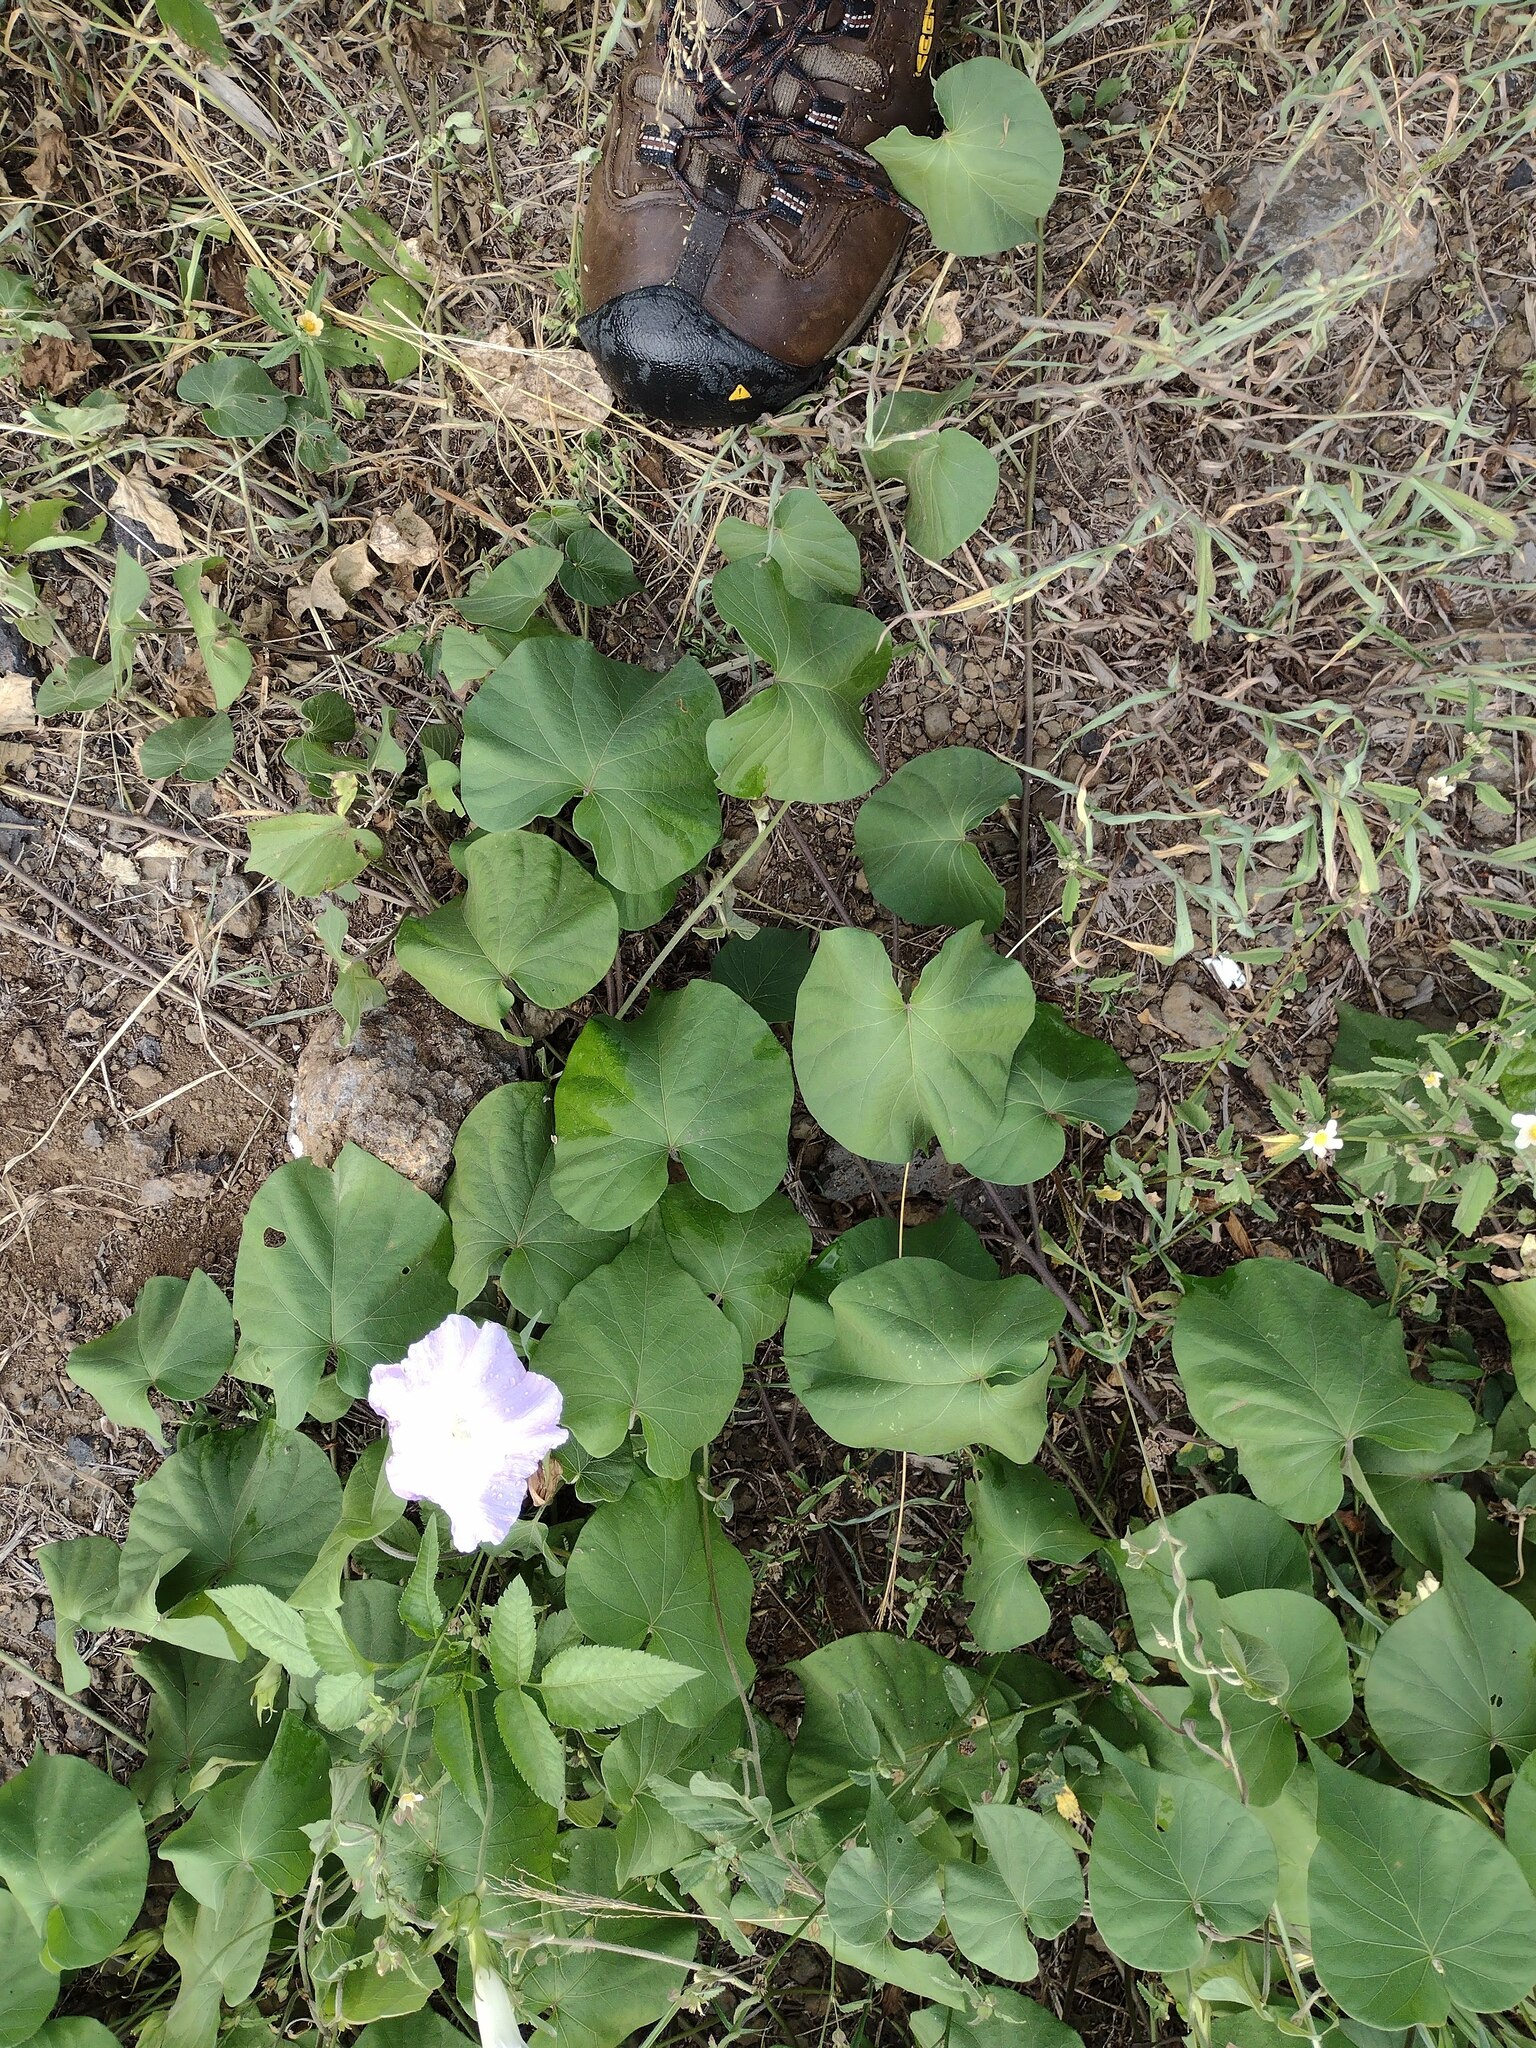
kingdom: Plantae
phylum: Tracheophyta
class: Magnoliopsida
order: Solanales
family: Convolvulaceae
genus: Ipomoea
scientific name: Ipomoea indica
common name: Blue dawnflower
